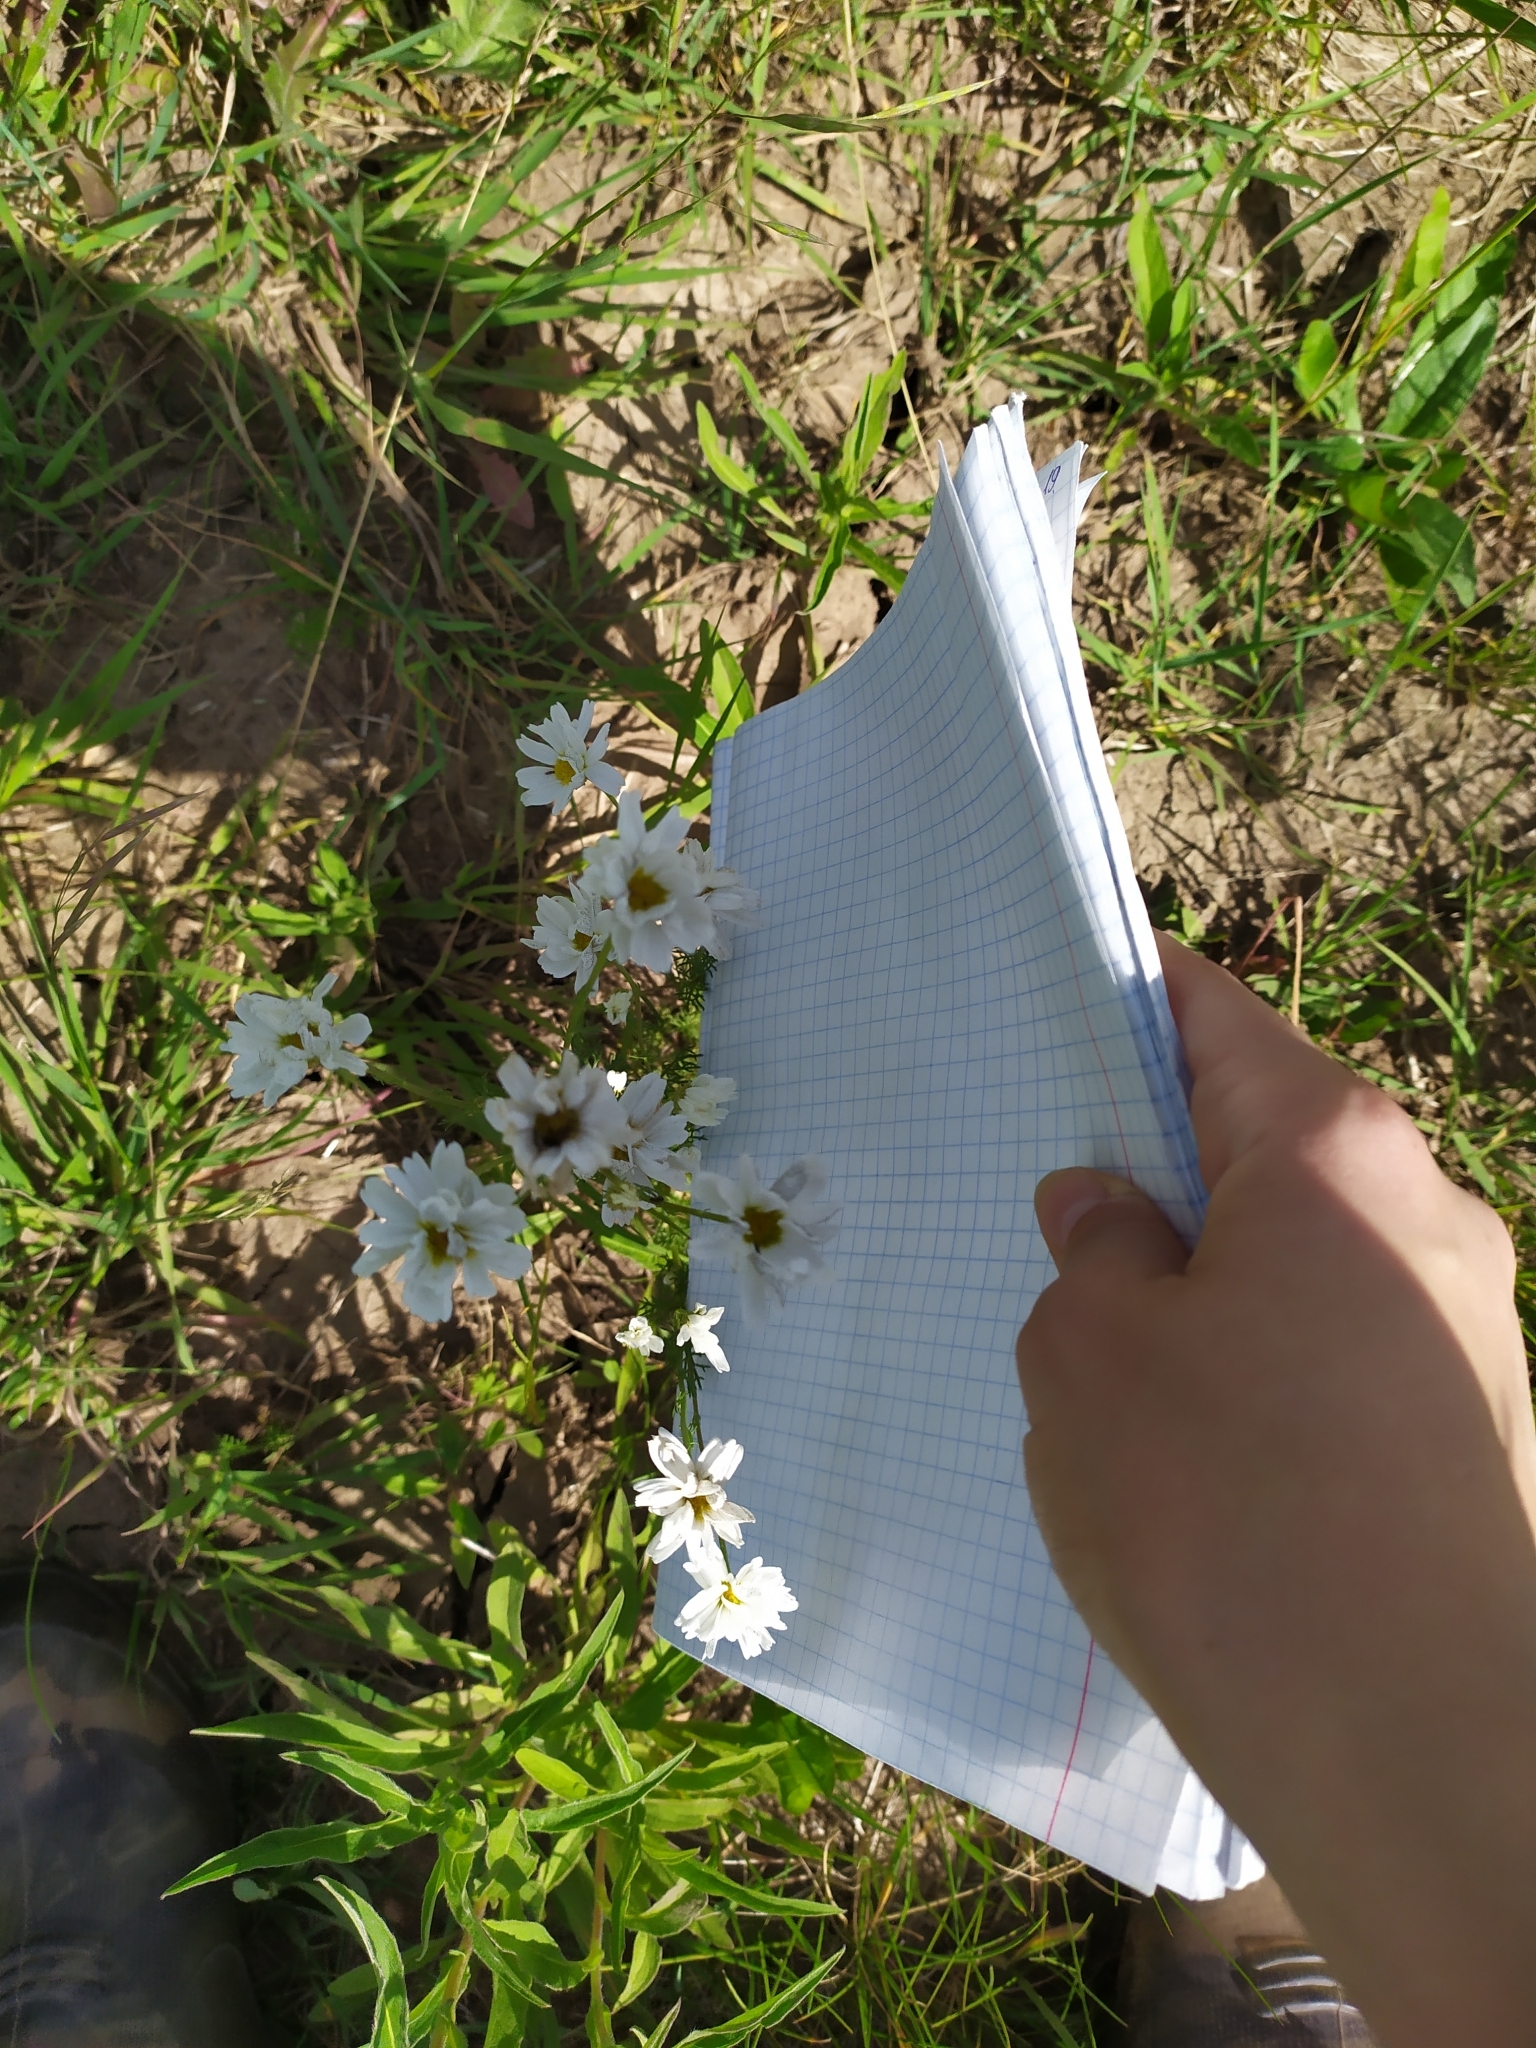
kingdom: Plantae
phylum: Tracheophyta
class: Magnoliopsida
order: Asterales
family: Asteraceae
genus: Tripleurospermum
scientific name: Tripleurospermum inodorum
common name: Scentless mayweed
